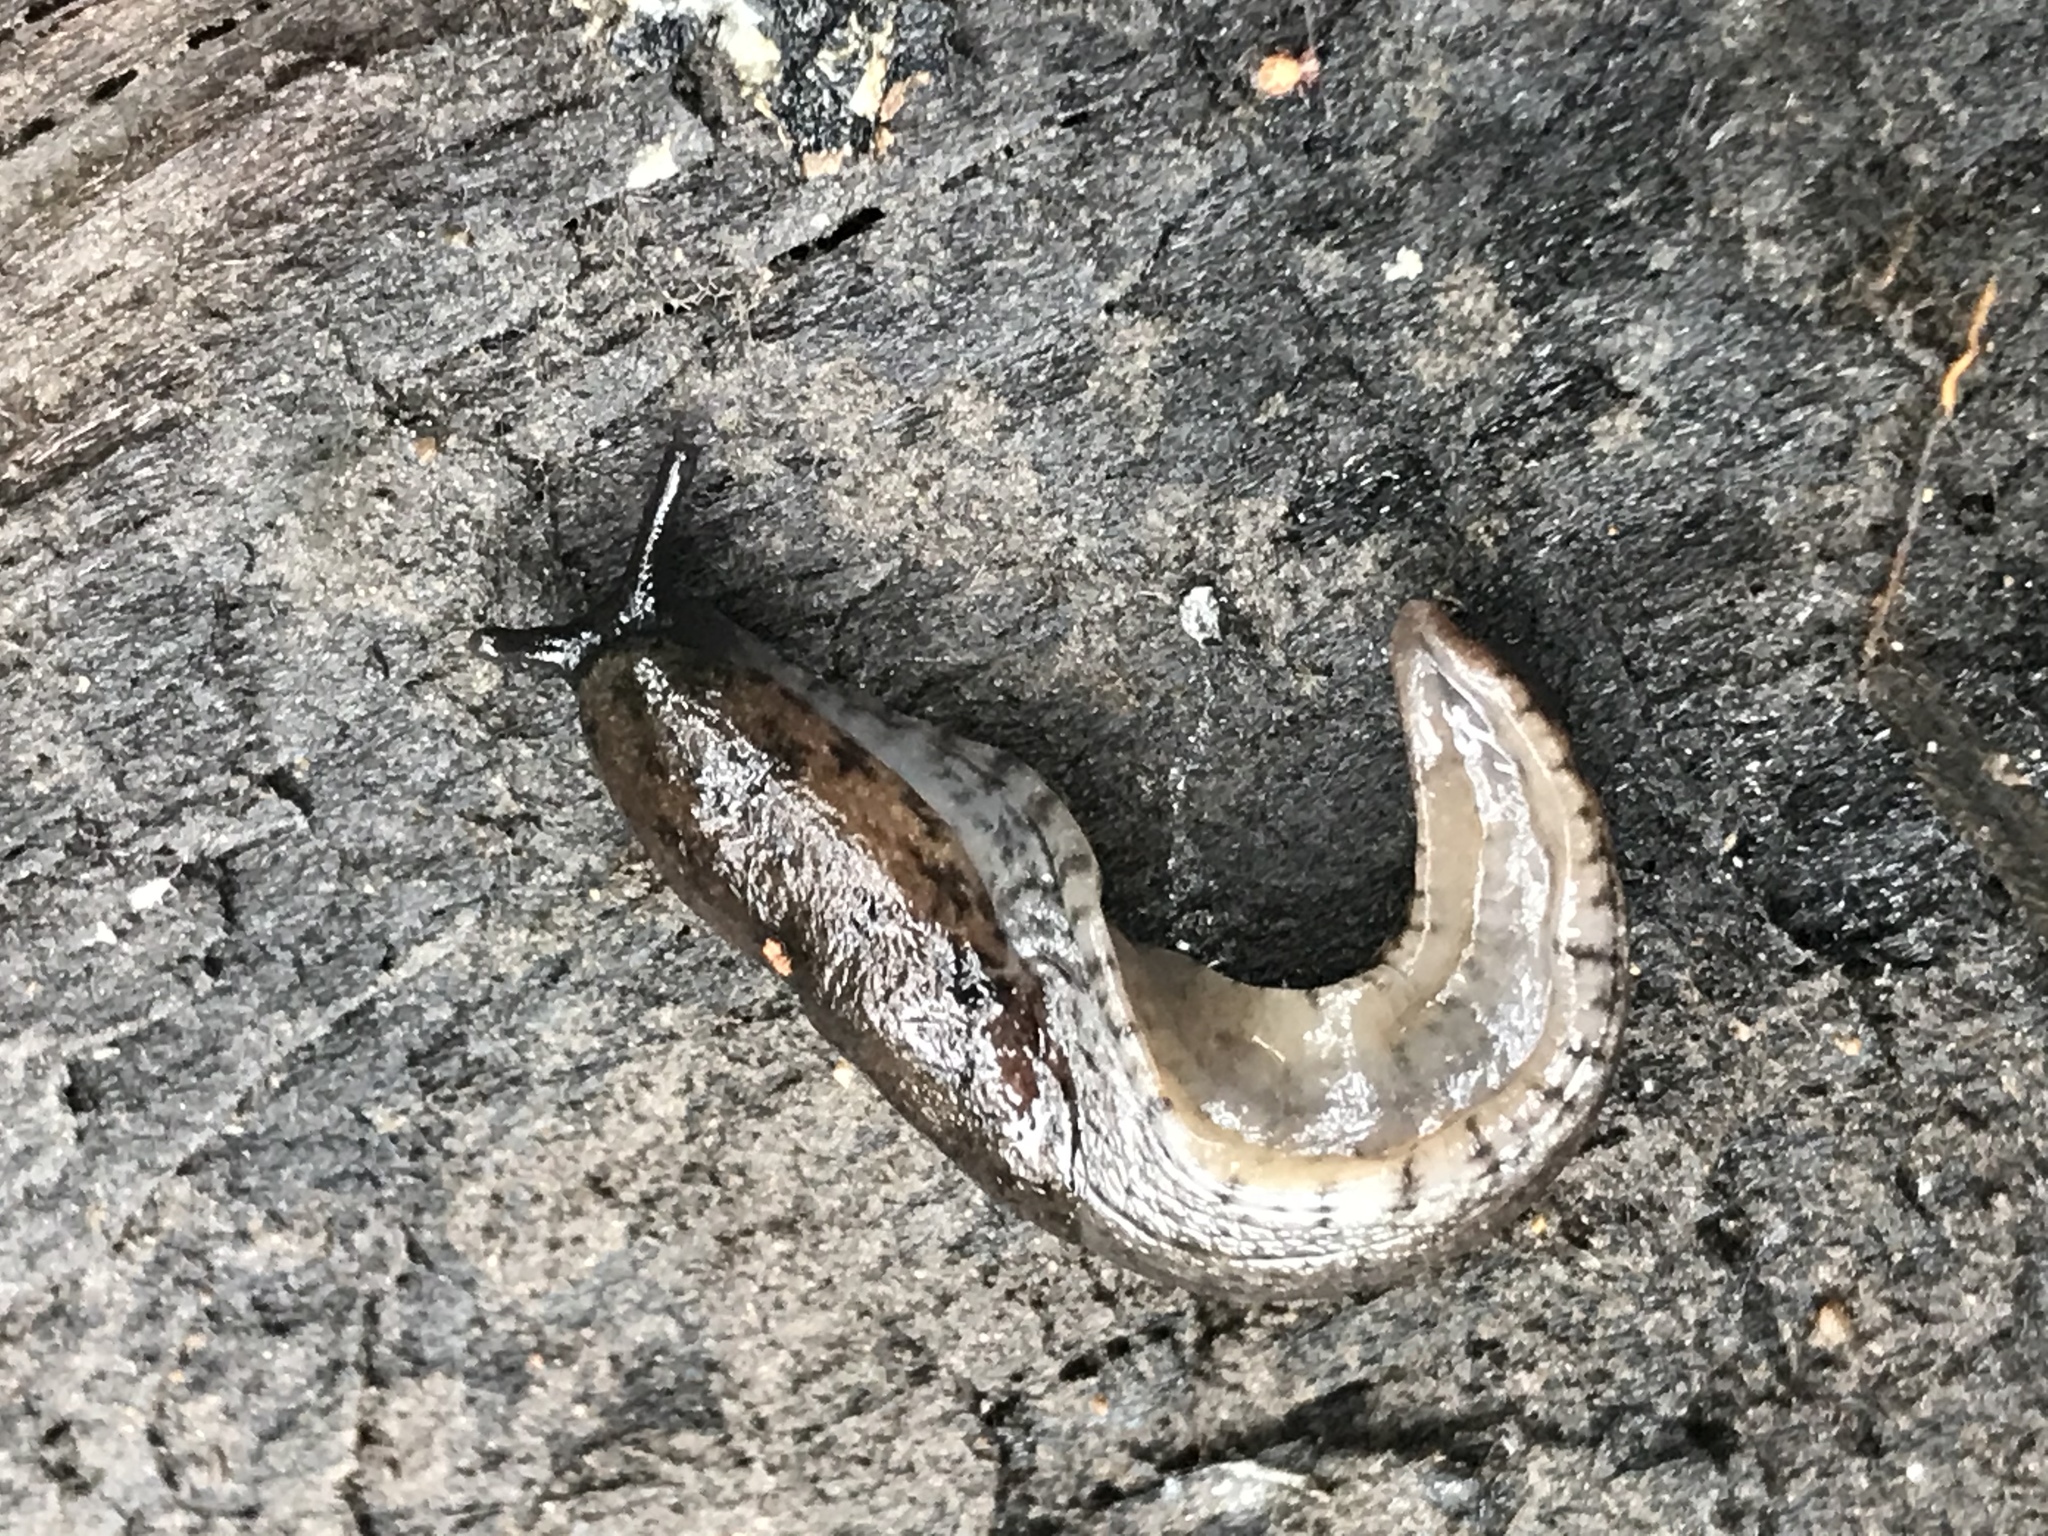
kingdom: Animalia
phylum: Mollusca
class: Gastropoda
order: Stylommatophora
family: Ariolimacidae
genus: Hesperarion
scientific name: Hesperarion niger
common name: Black western slug
